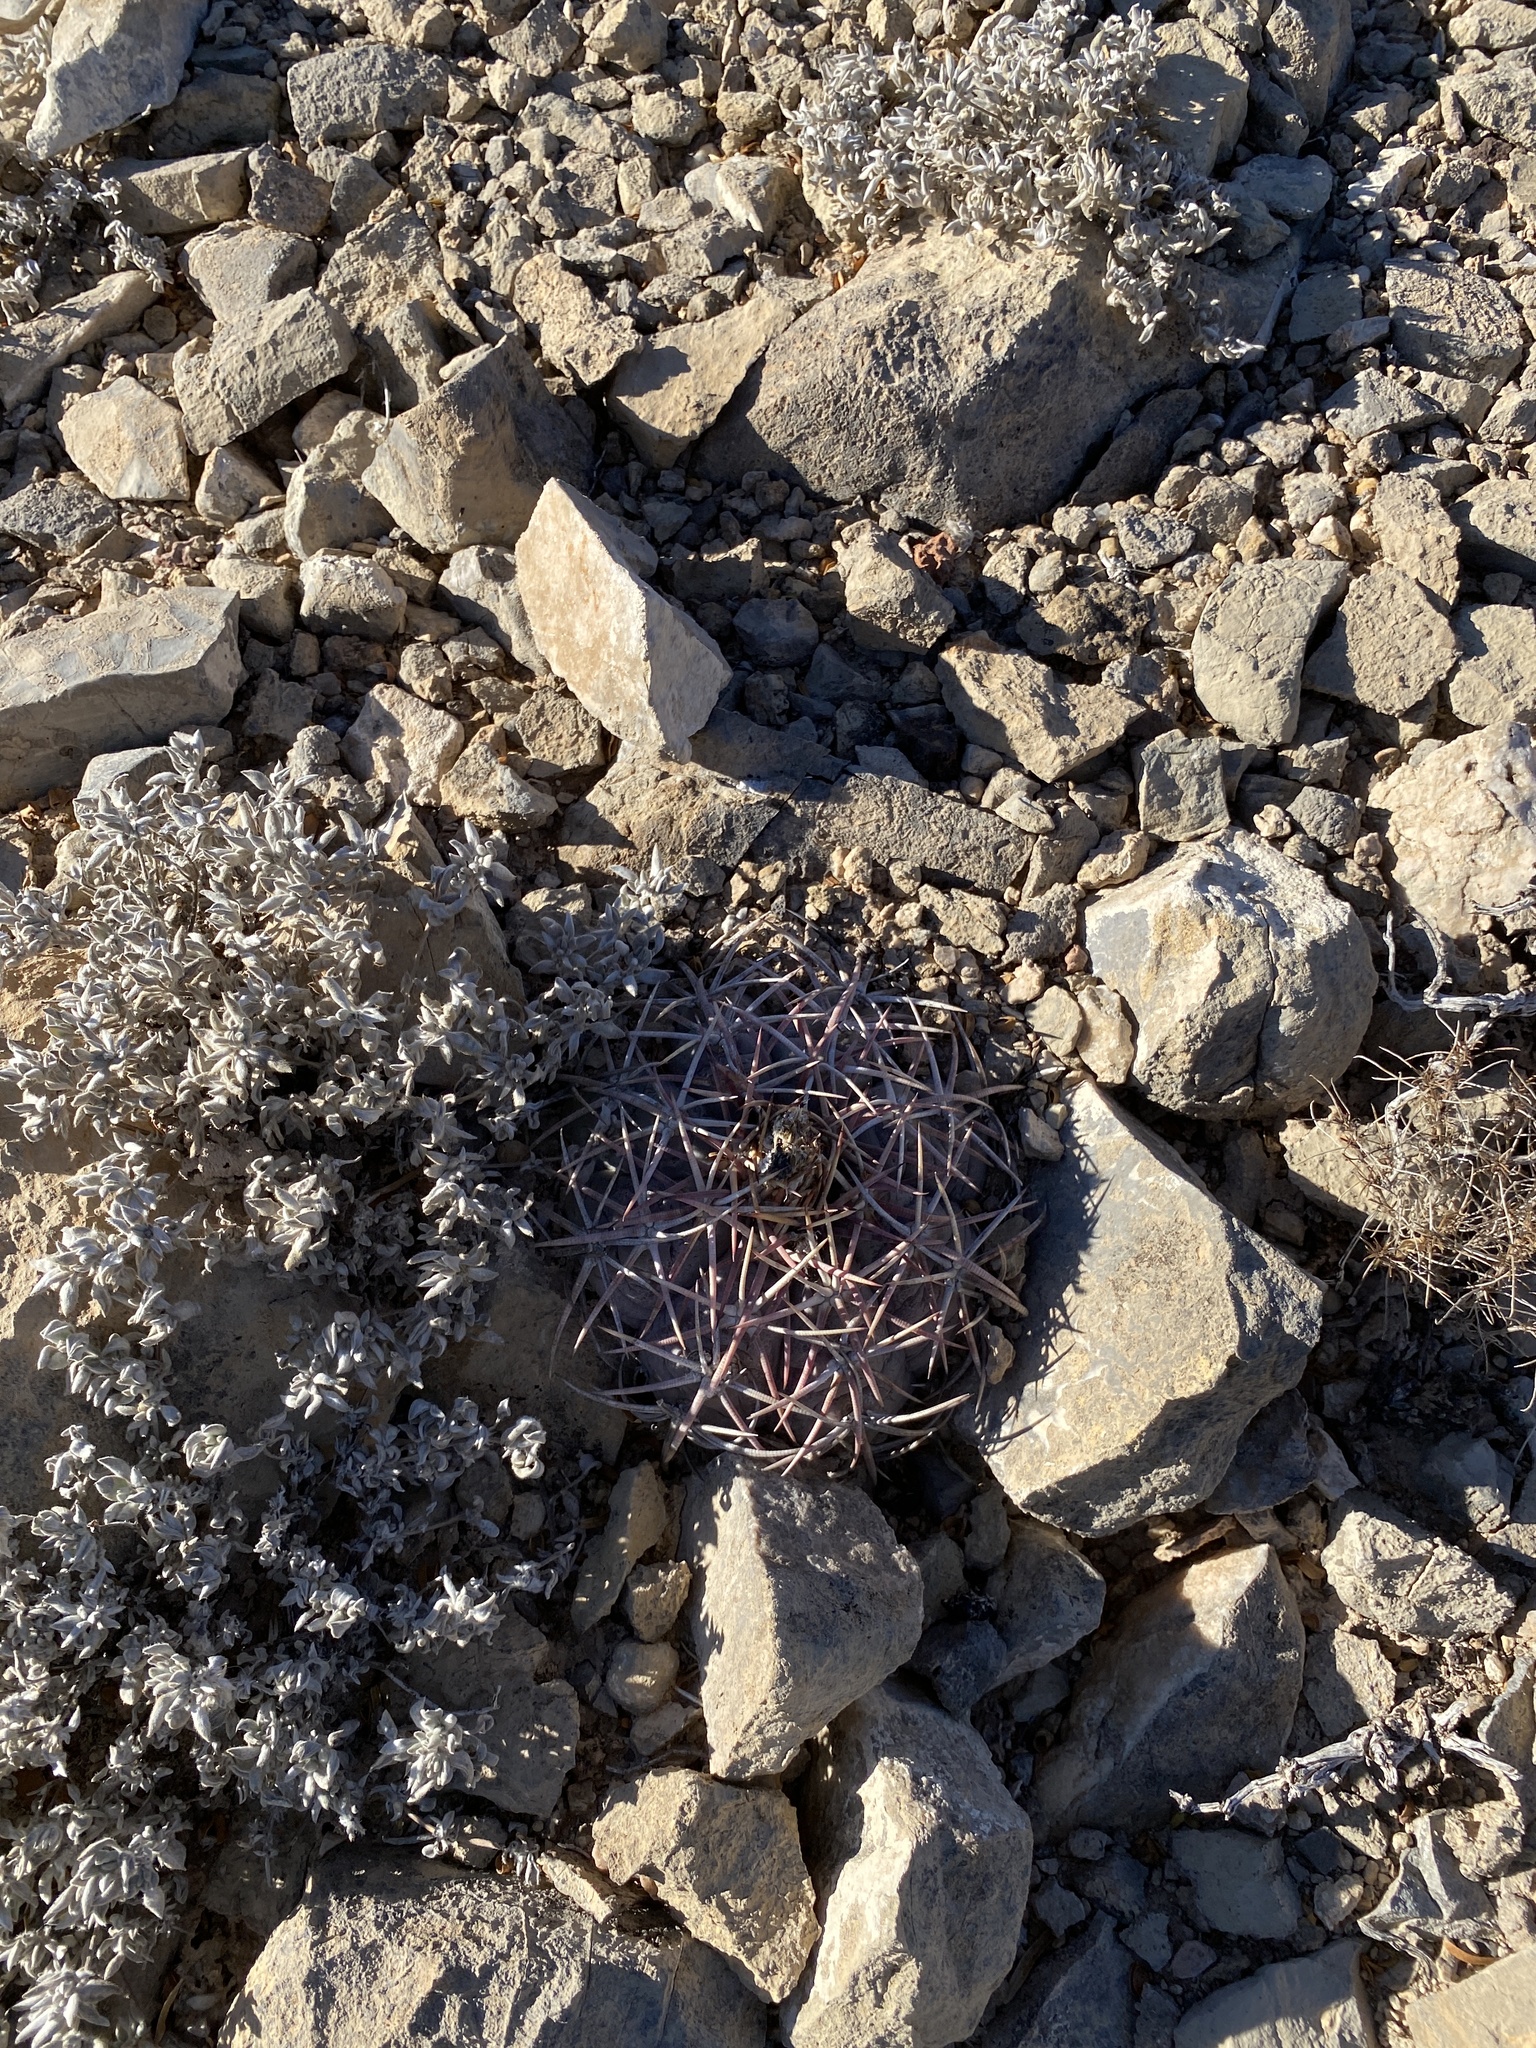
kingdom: Plantae
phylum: Tracheophyta
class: Magnoliopsida
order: Caryophyllales
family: Cactaceae
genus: Echinocactus
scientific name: Echinocactus horizonthalonius
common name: Devilshead
